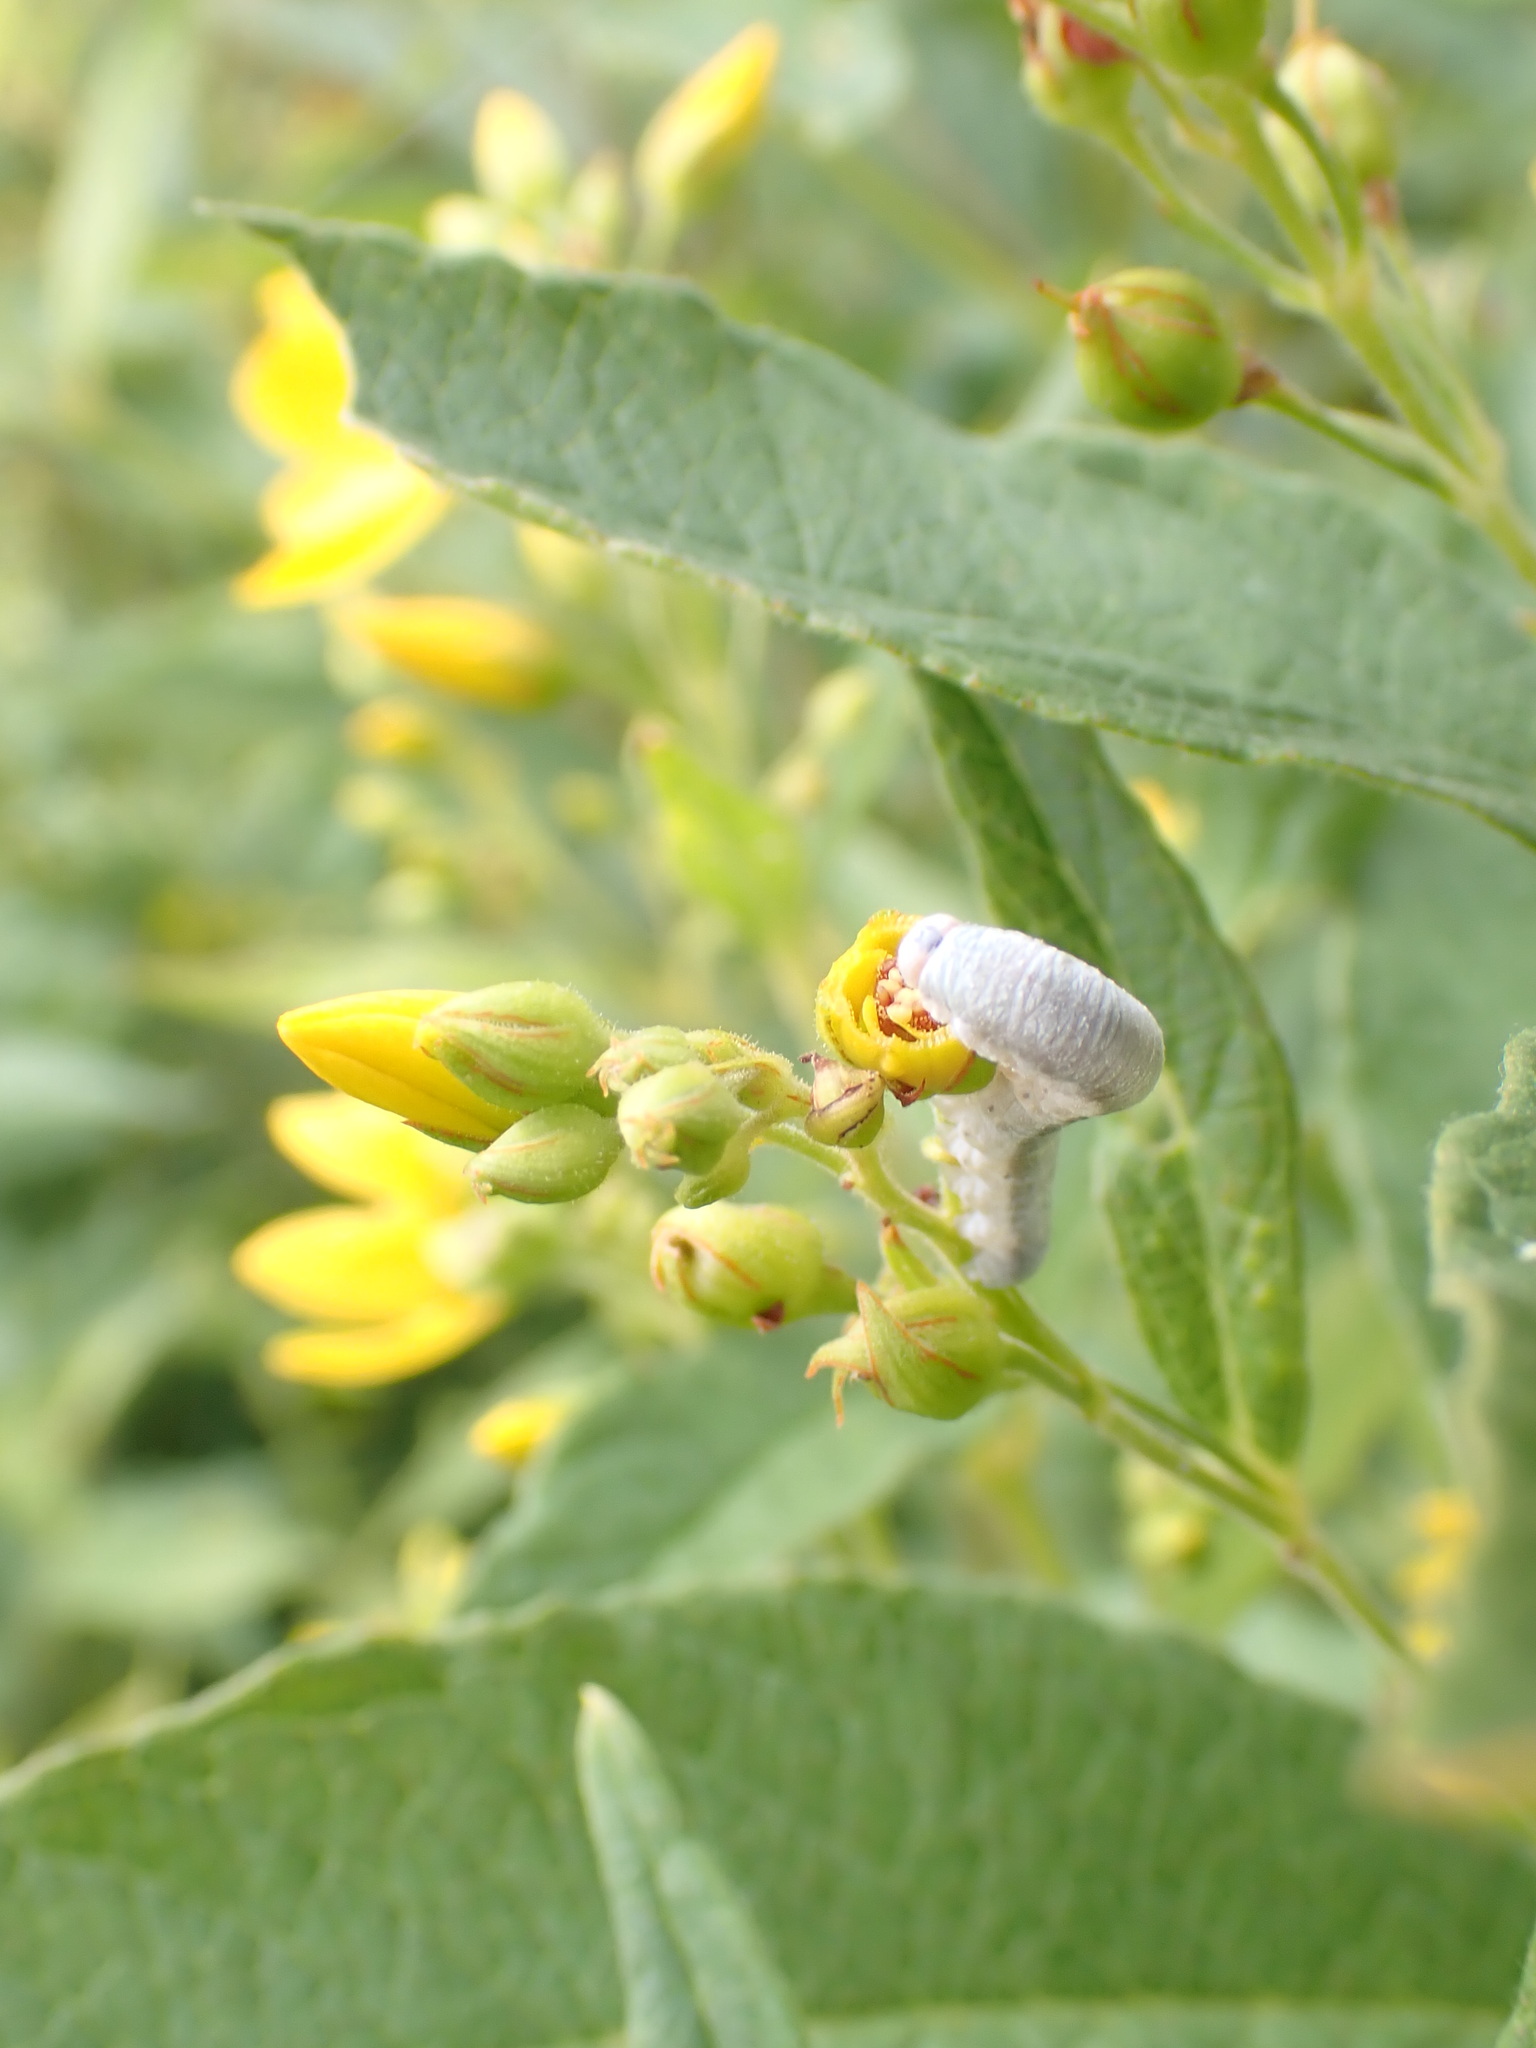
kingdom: Animalia
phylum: Arthropoda
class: Insecta
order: Hymenoptera
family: Tenthredinidae
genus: Monostegia
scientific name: Monostegia abdominalis
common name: Tenthredid wasp
